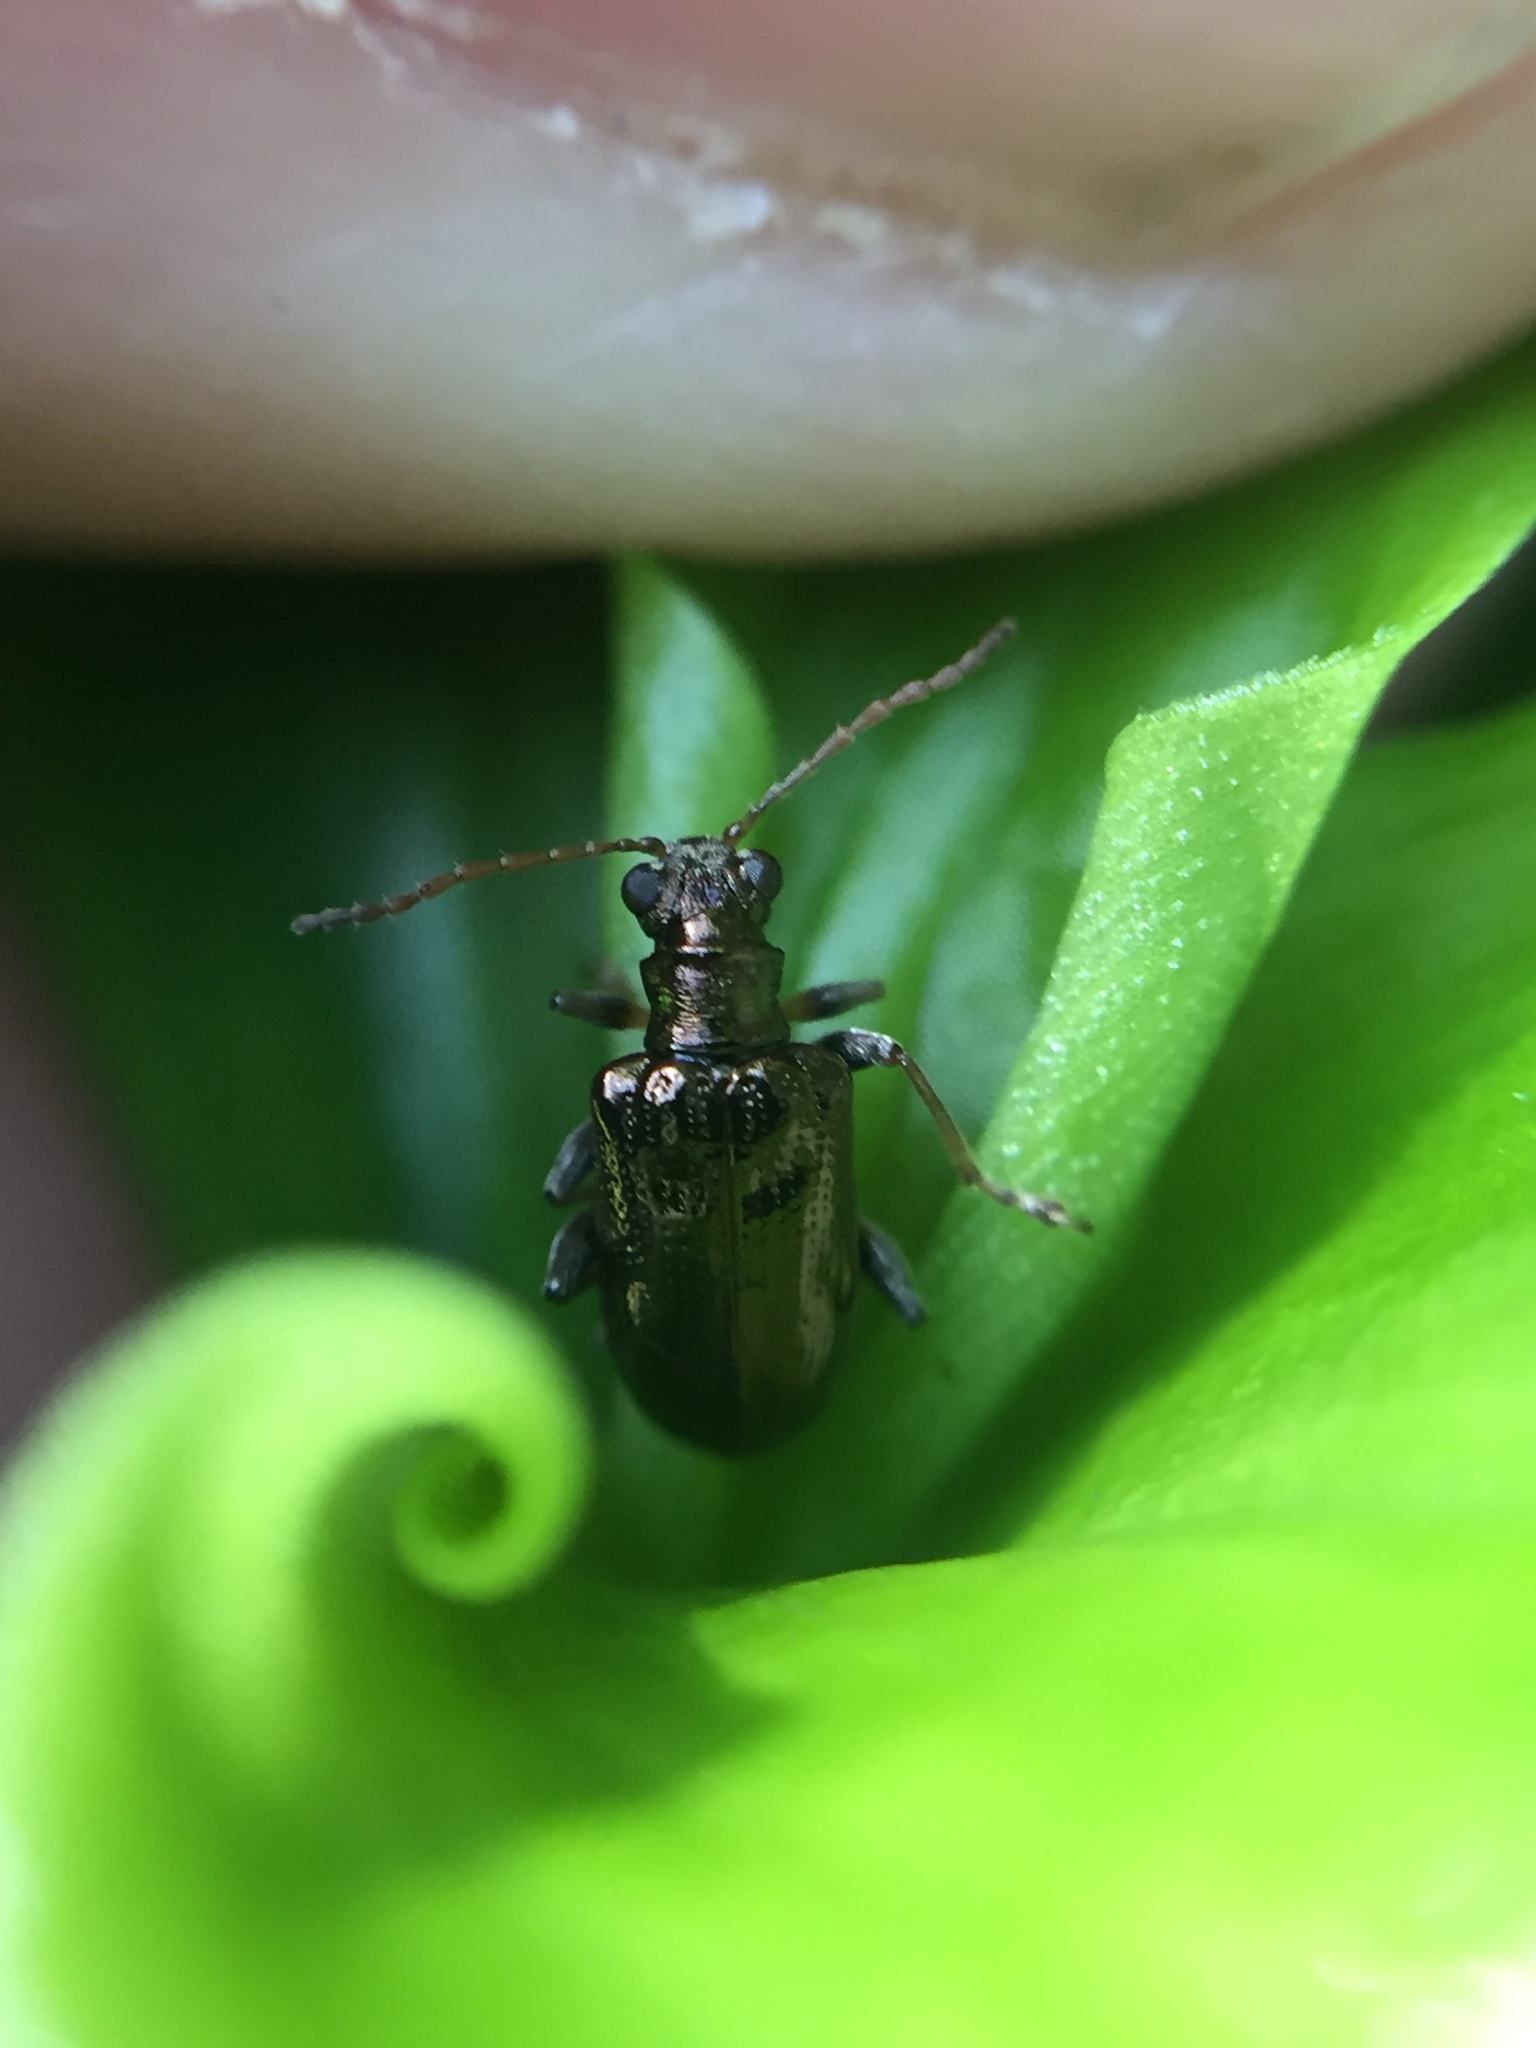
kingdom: Animalia
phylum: Arthropoda
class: Insecta
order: Coleoptera
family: Chrysomelidae
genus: Neolema
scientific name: Neolema ogloblini
